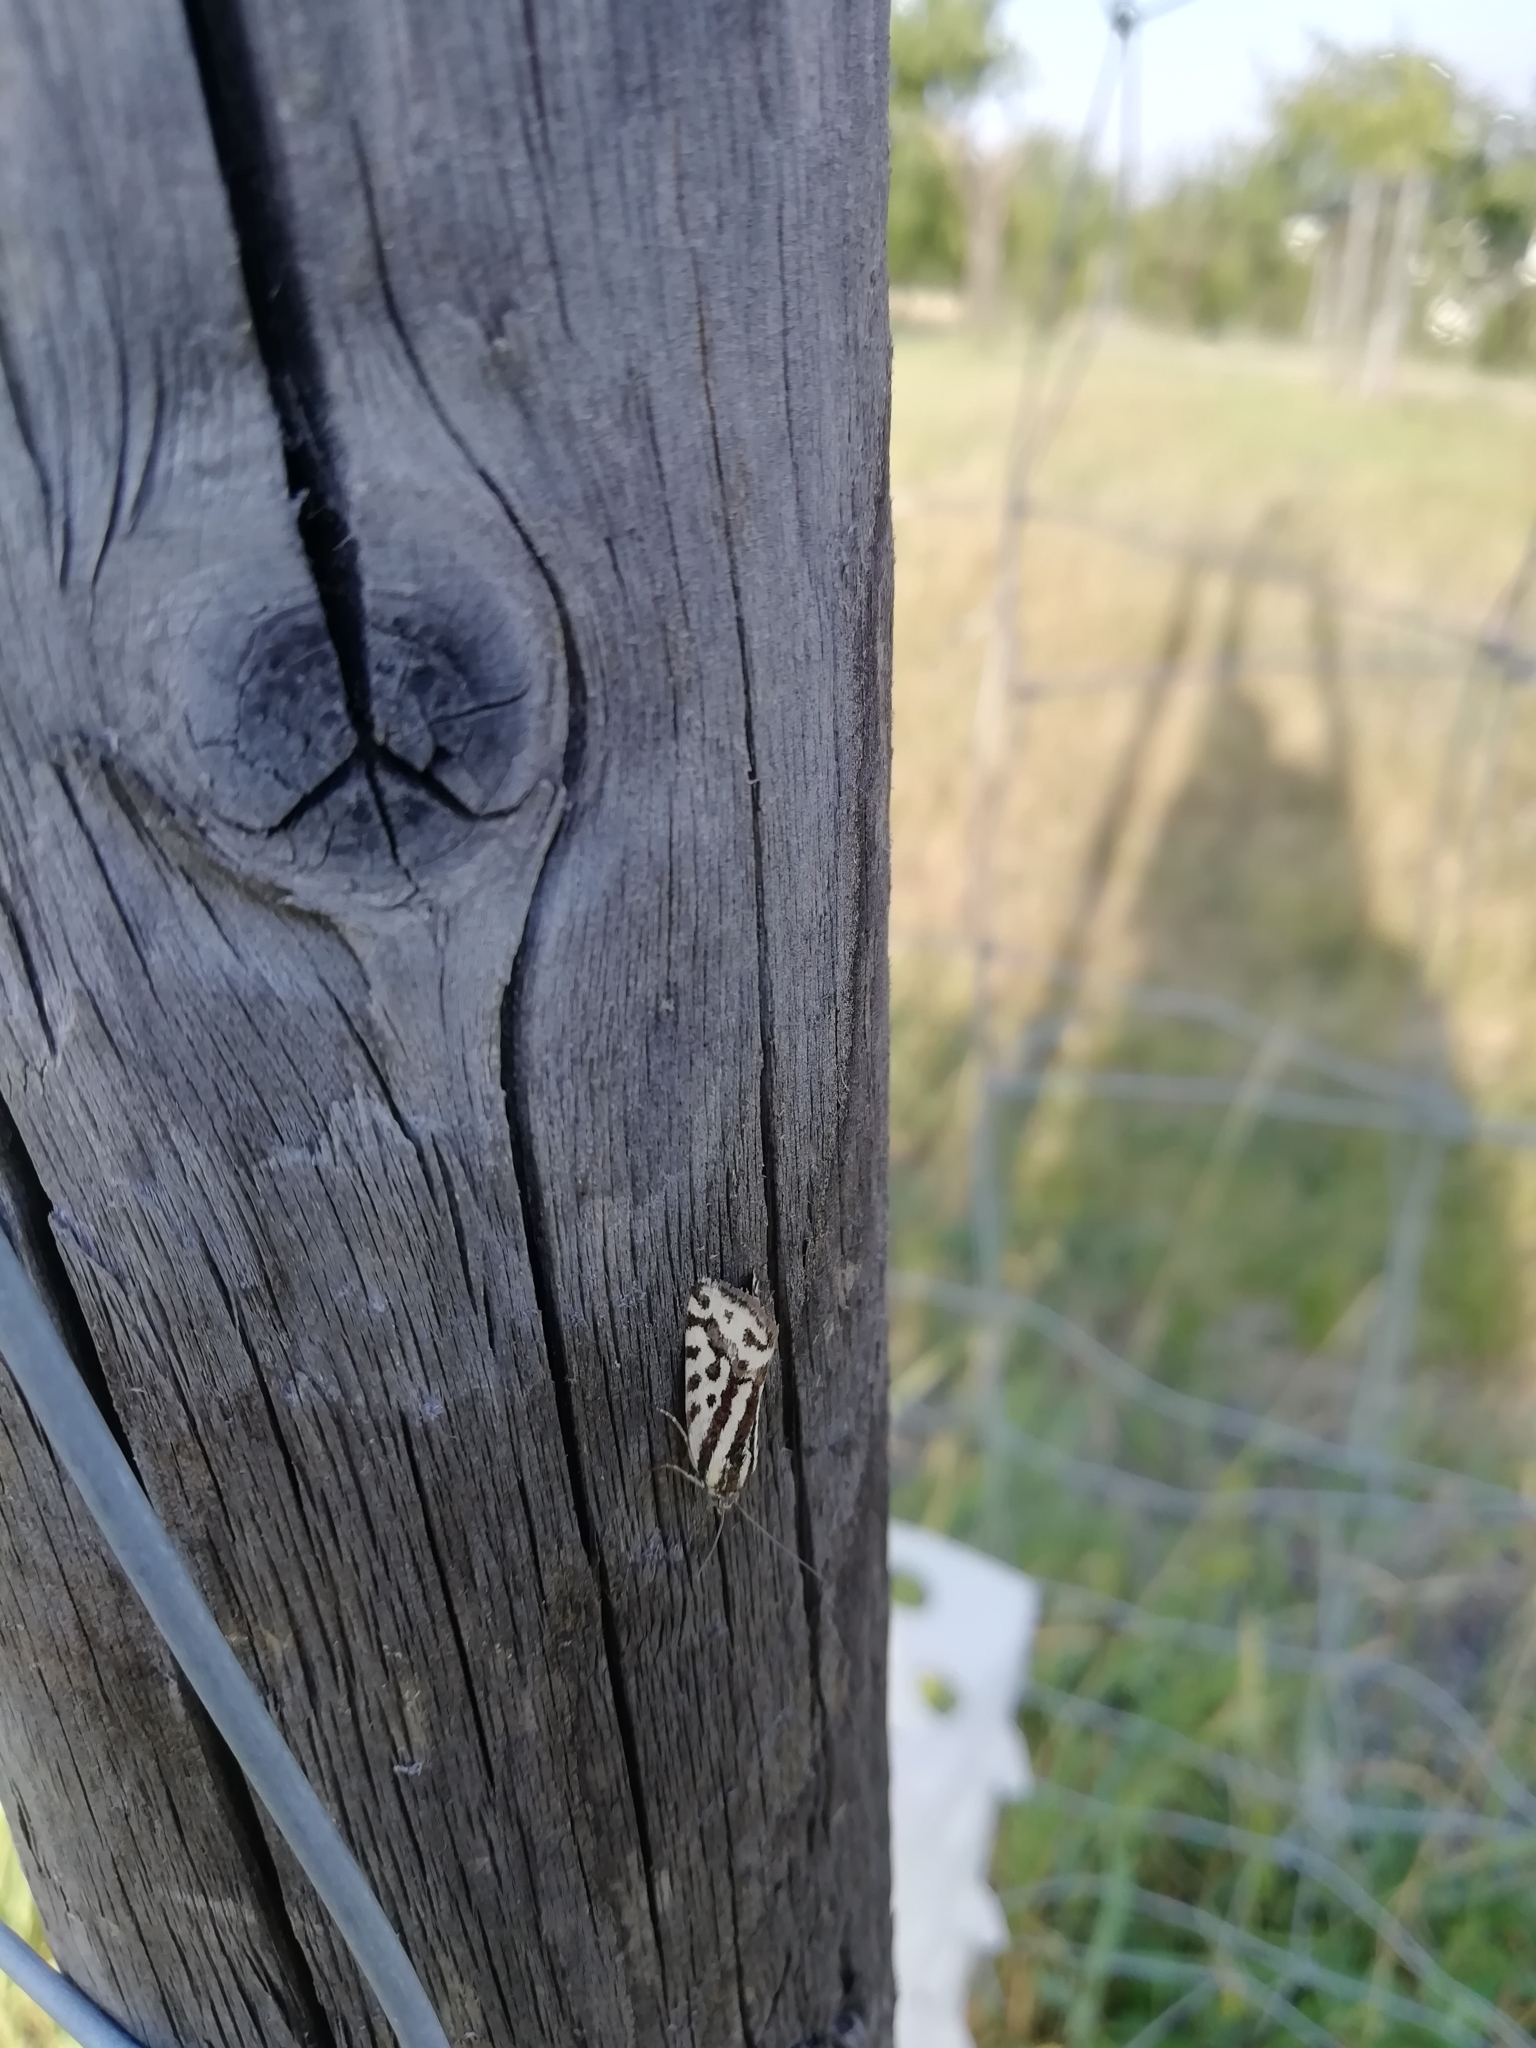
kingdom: Animalia
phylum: Arthropoda
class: Insecta
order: Lepidoptera
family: Noctuidae
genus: Acontia
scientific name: Acontia trabealis
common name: Spotted sulphur
